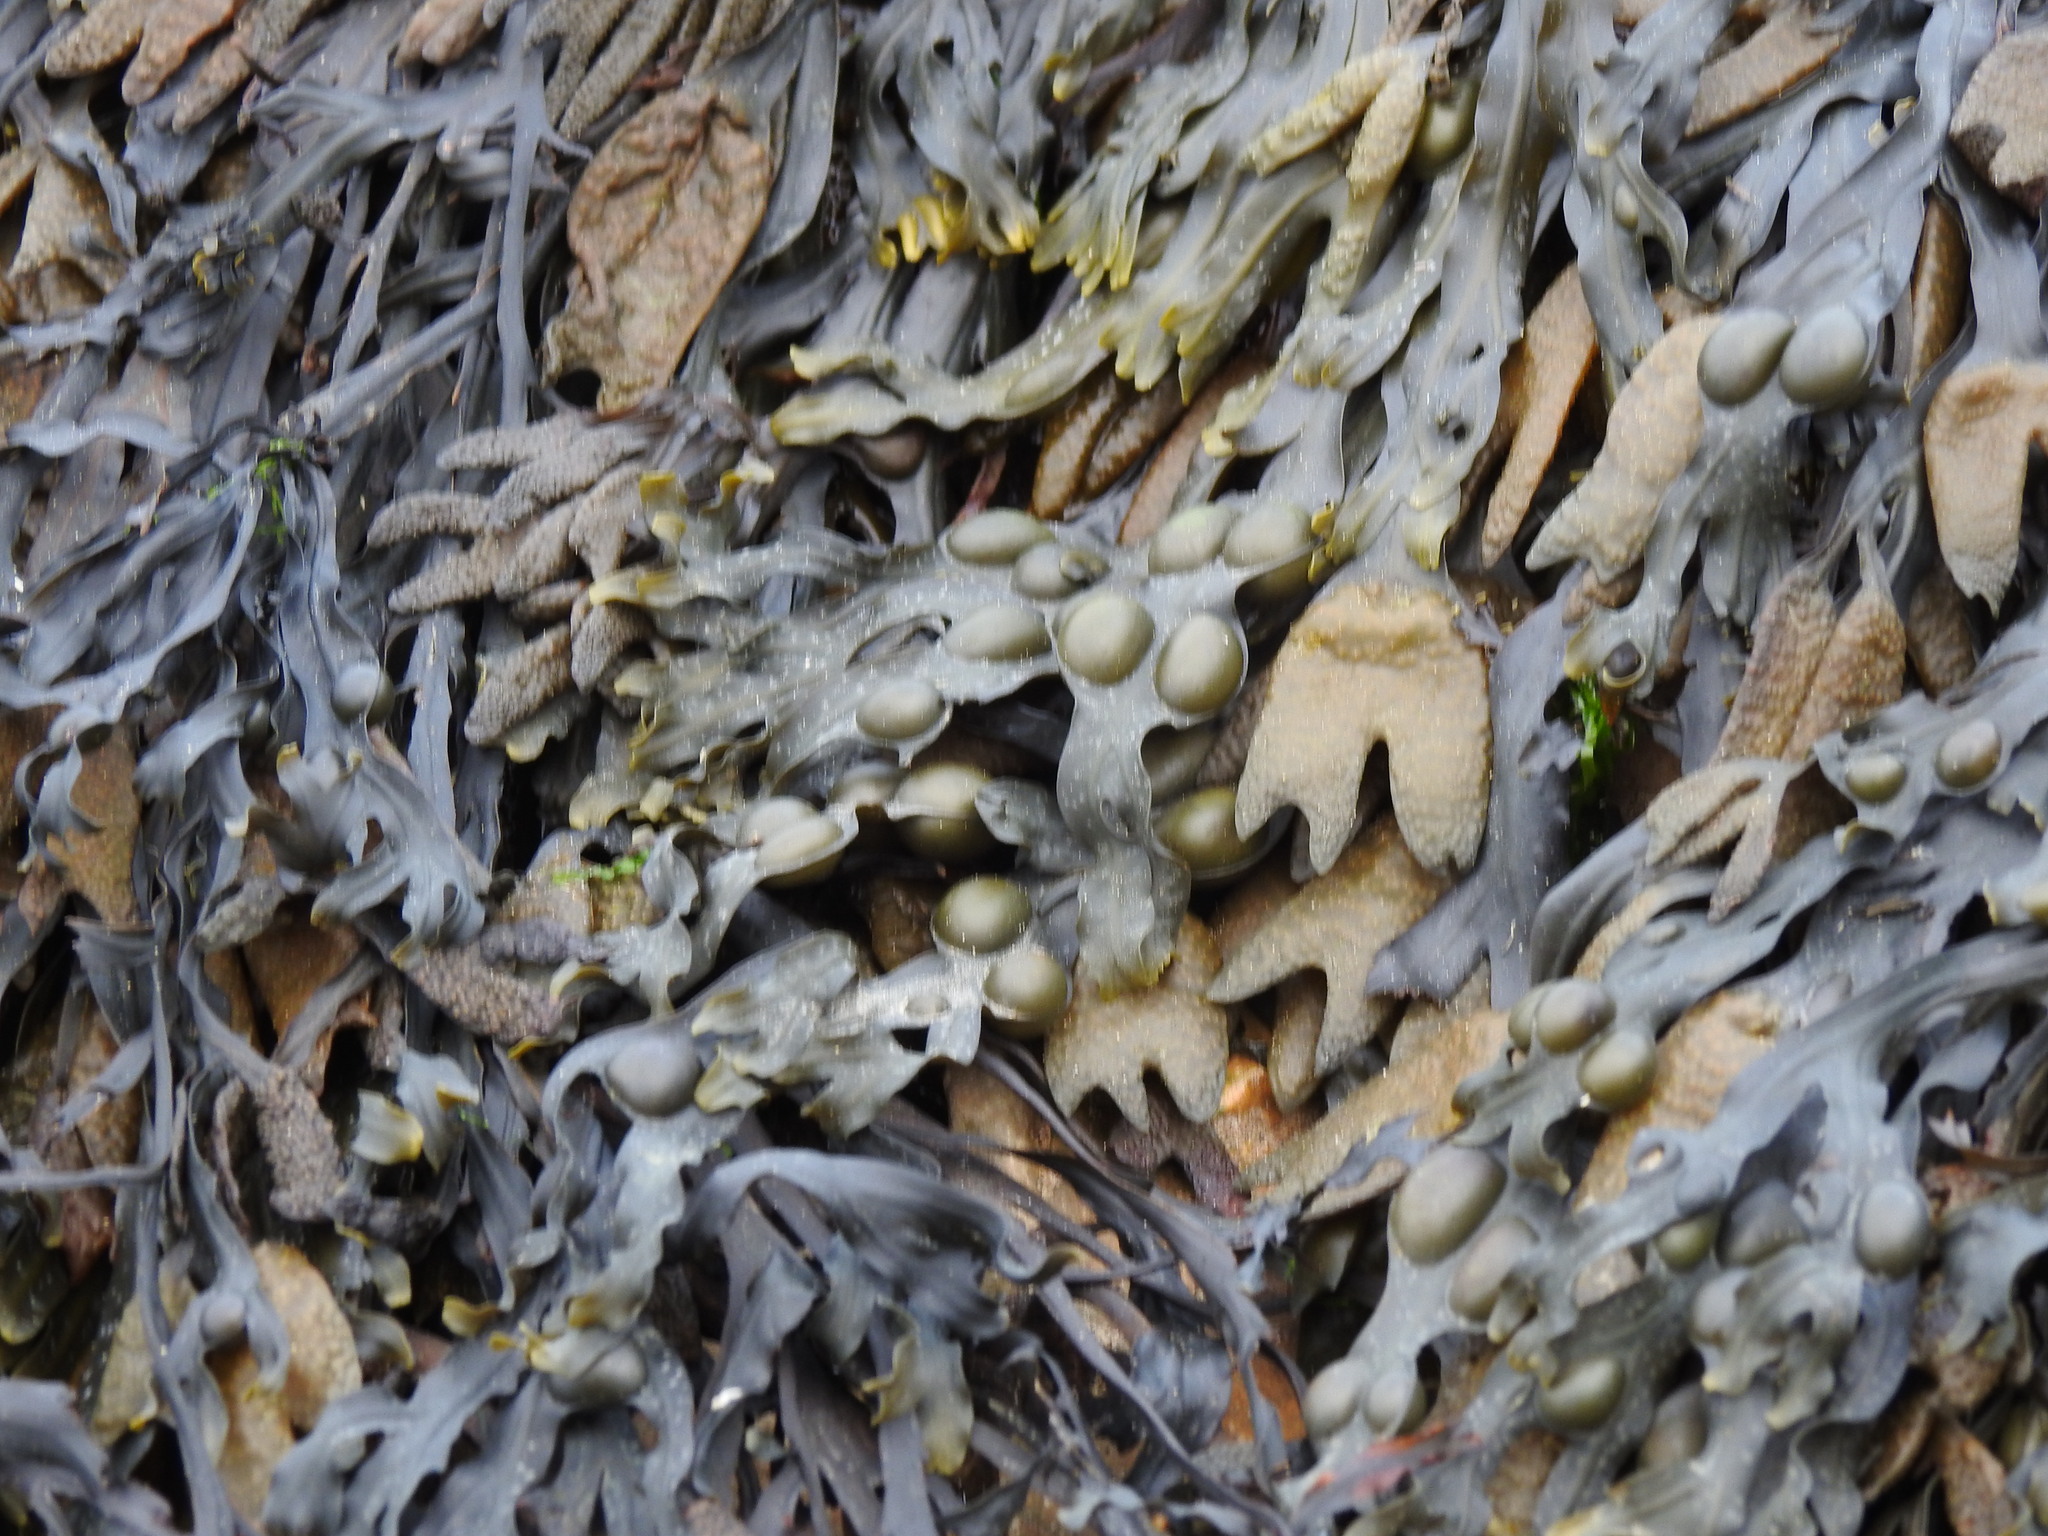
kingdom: Chromista
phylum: Ochrophyta
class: Phaeophyceae
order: Fucales
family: Fucaceae
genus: Fucus
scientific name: Fucus vesiculosus
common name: Bladder wrack
